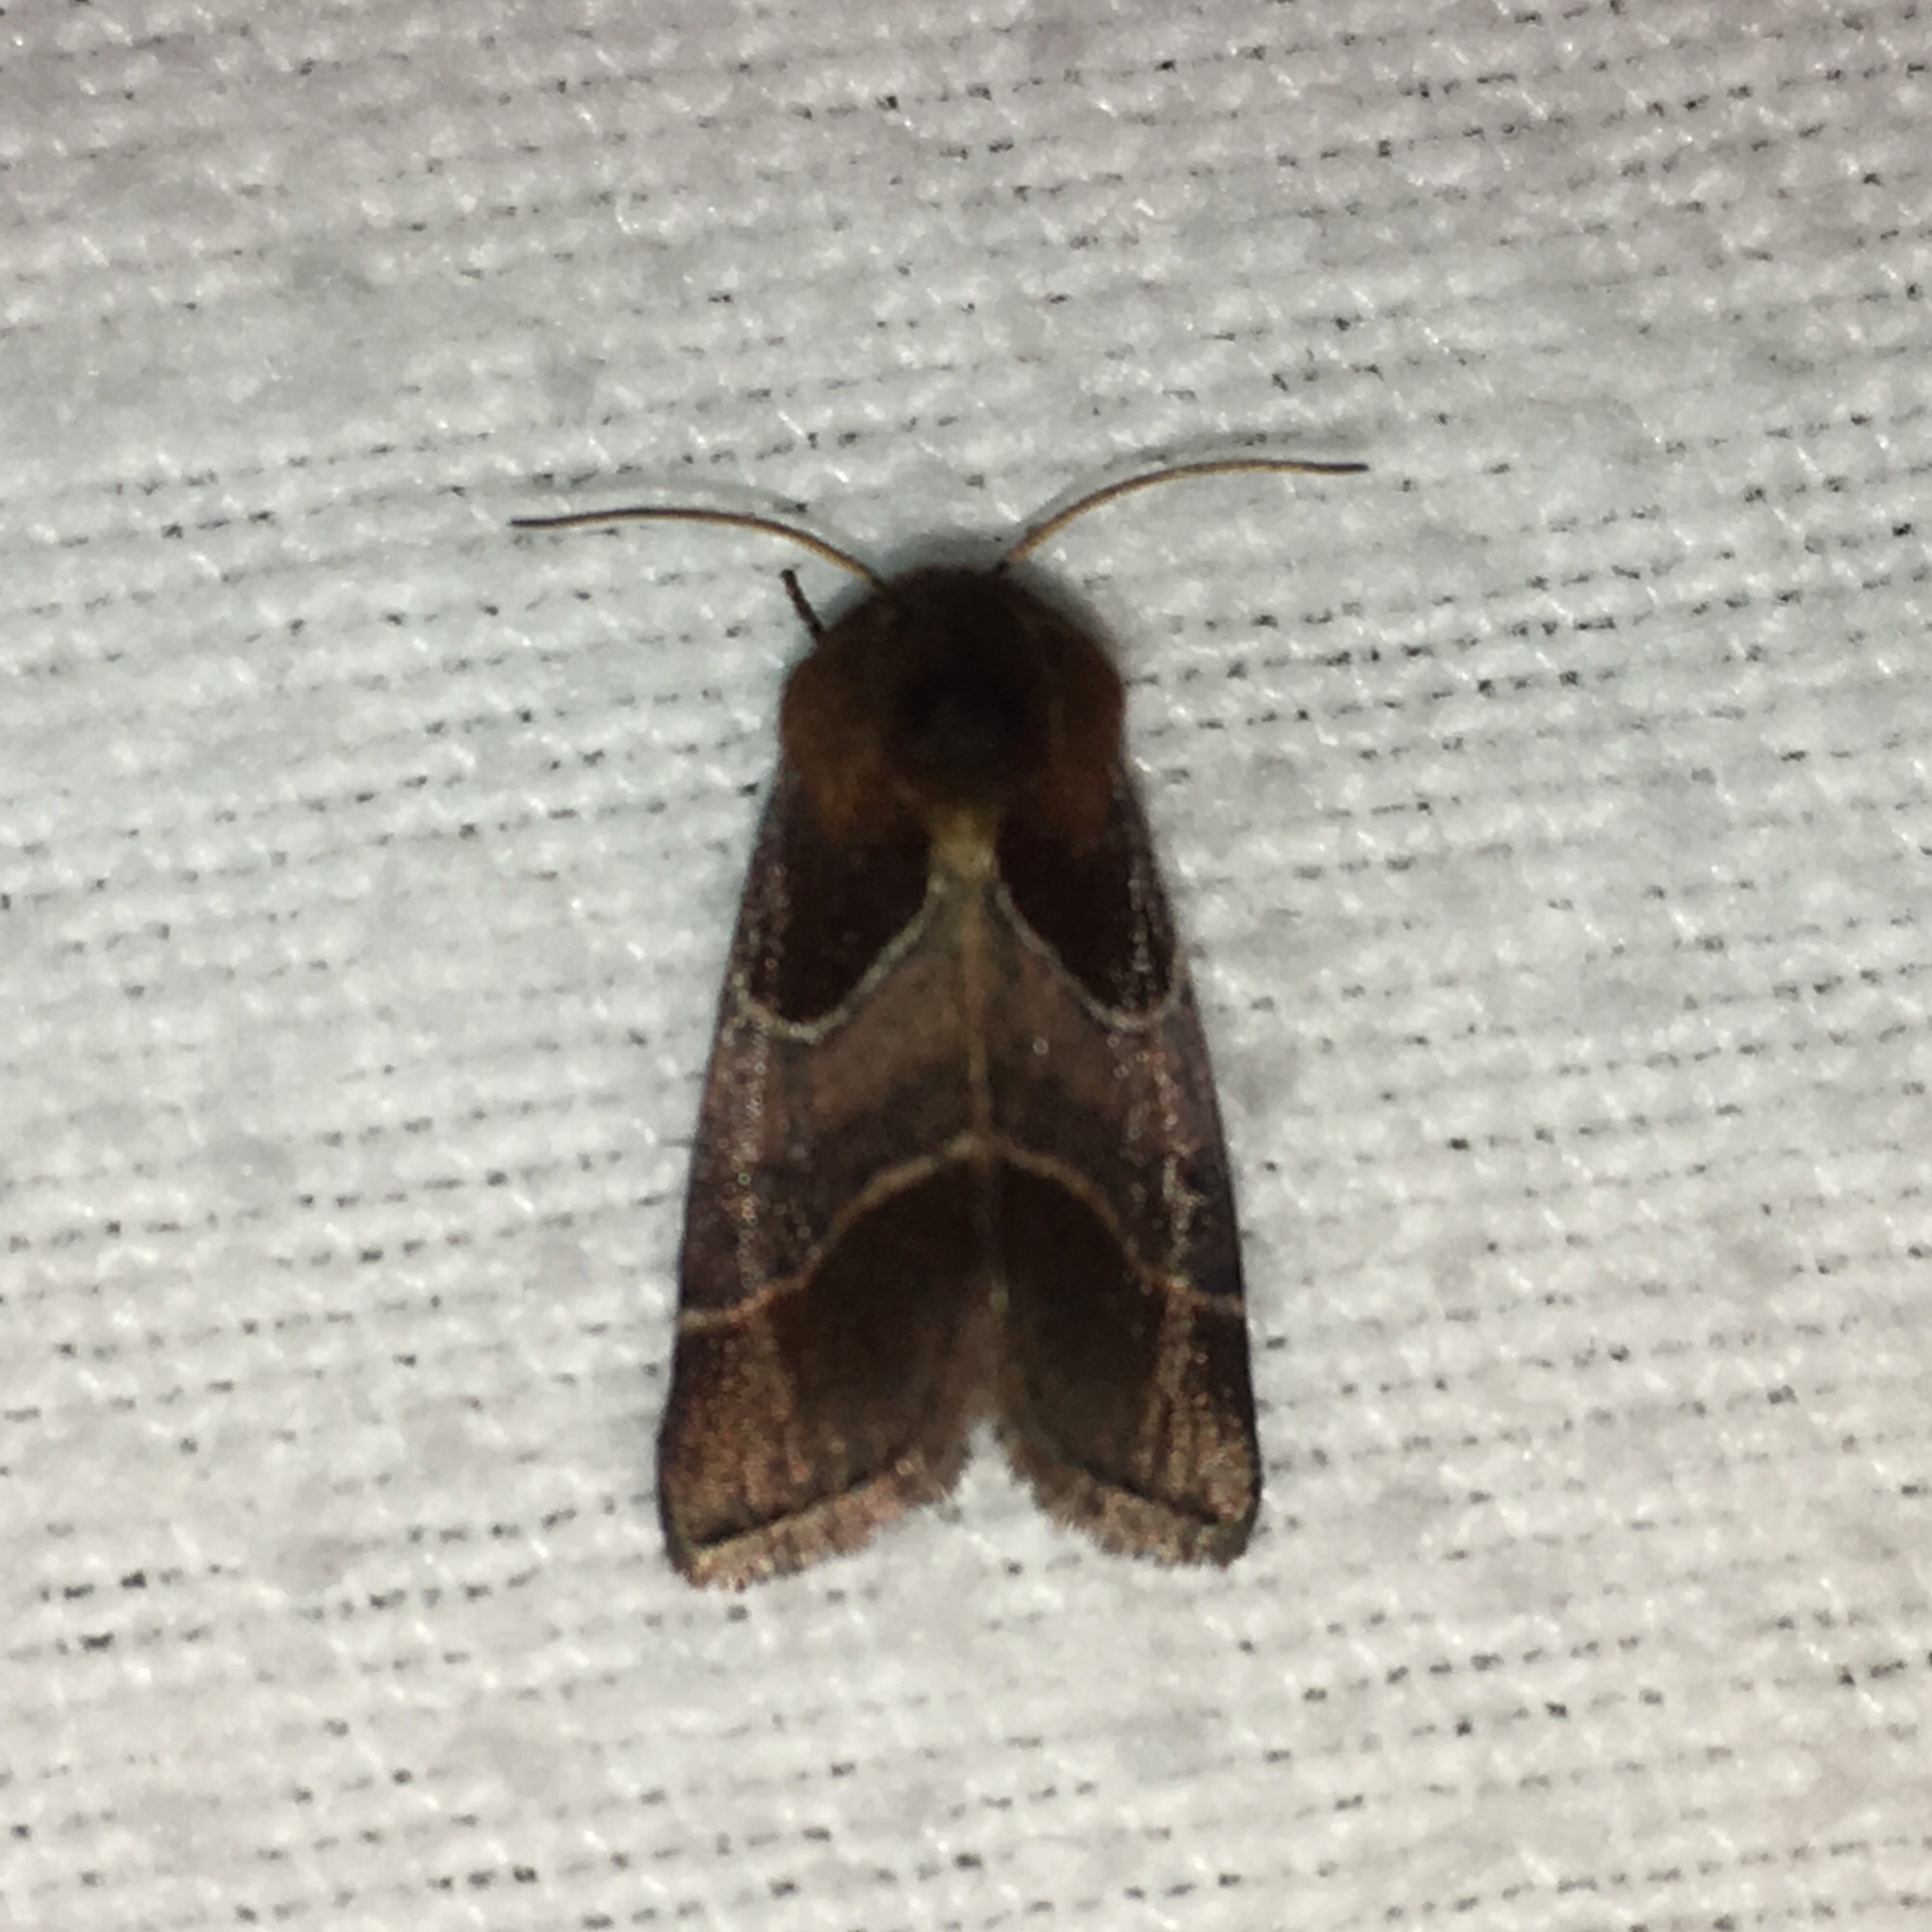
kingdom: Animalia
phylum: Arthropoda
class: Insecta
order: Lepidoptera
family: Noctuidae
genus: Schinia
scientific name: Schinia arcigera
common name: Arcigera flower moth
